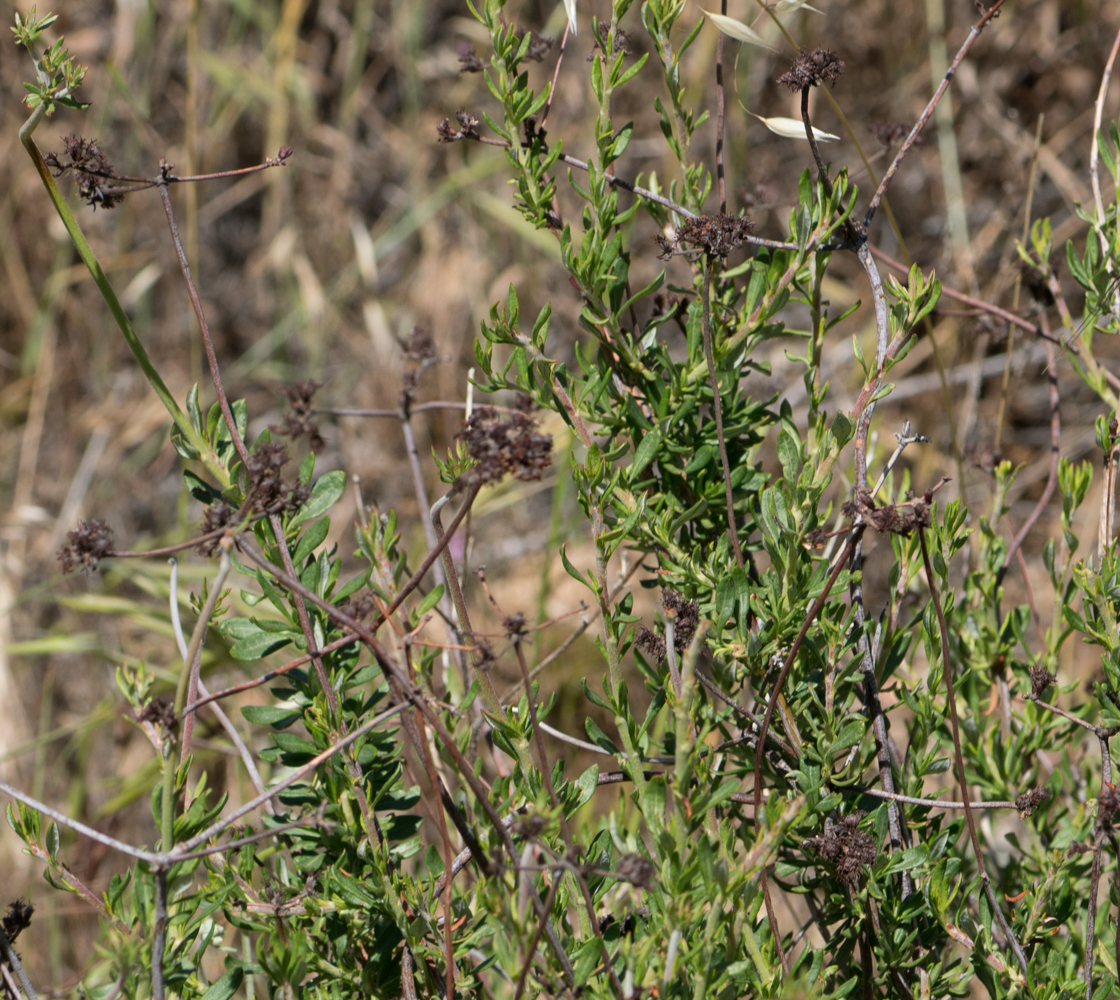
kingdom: Plantae
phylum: Tracheophyta
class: Magnoliopsida
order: Caryophyllales
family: Polygonaceae
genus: Eriogonum
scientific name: Eriogonum fasciculatum
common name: California wild buckwheat
